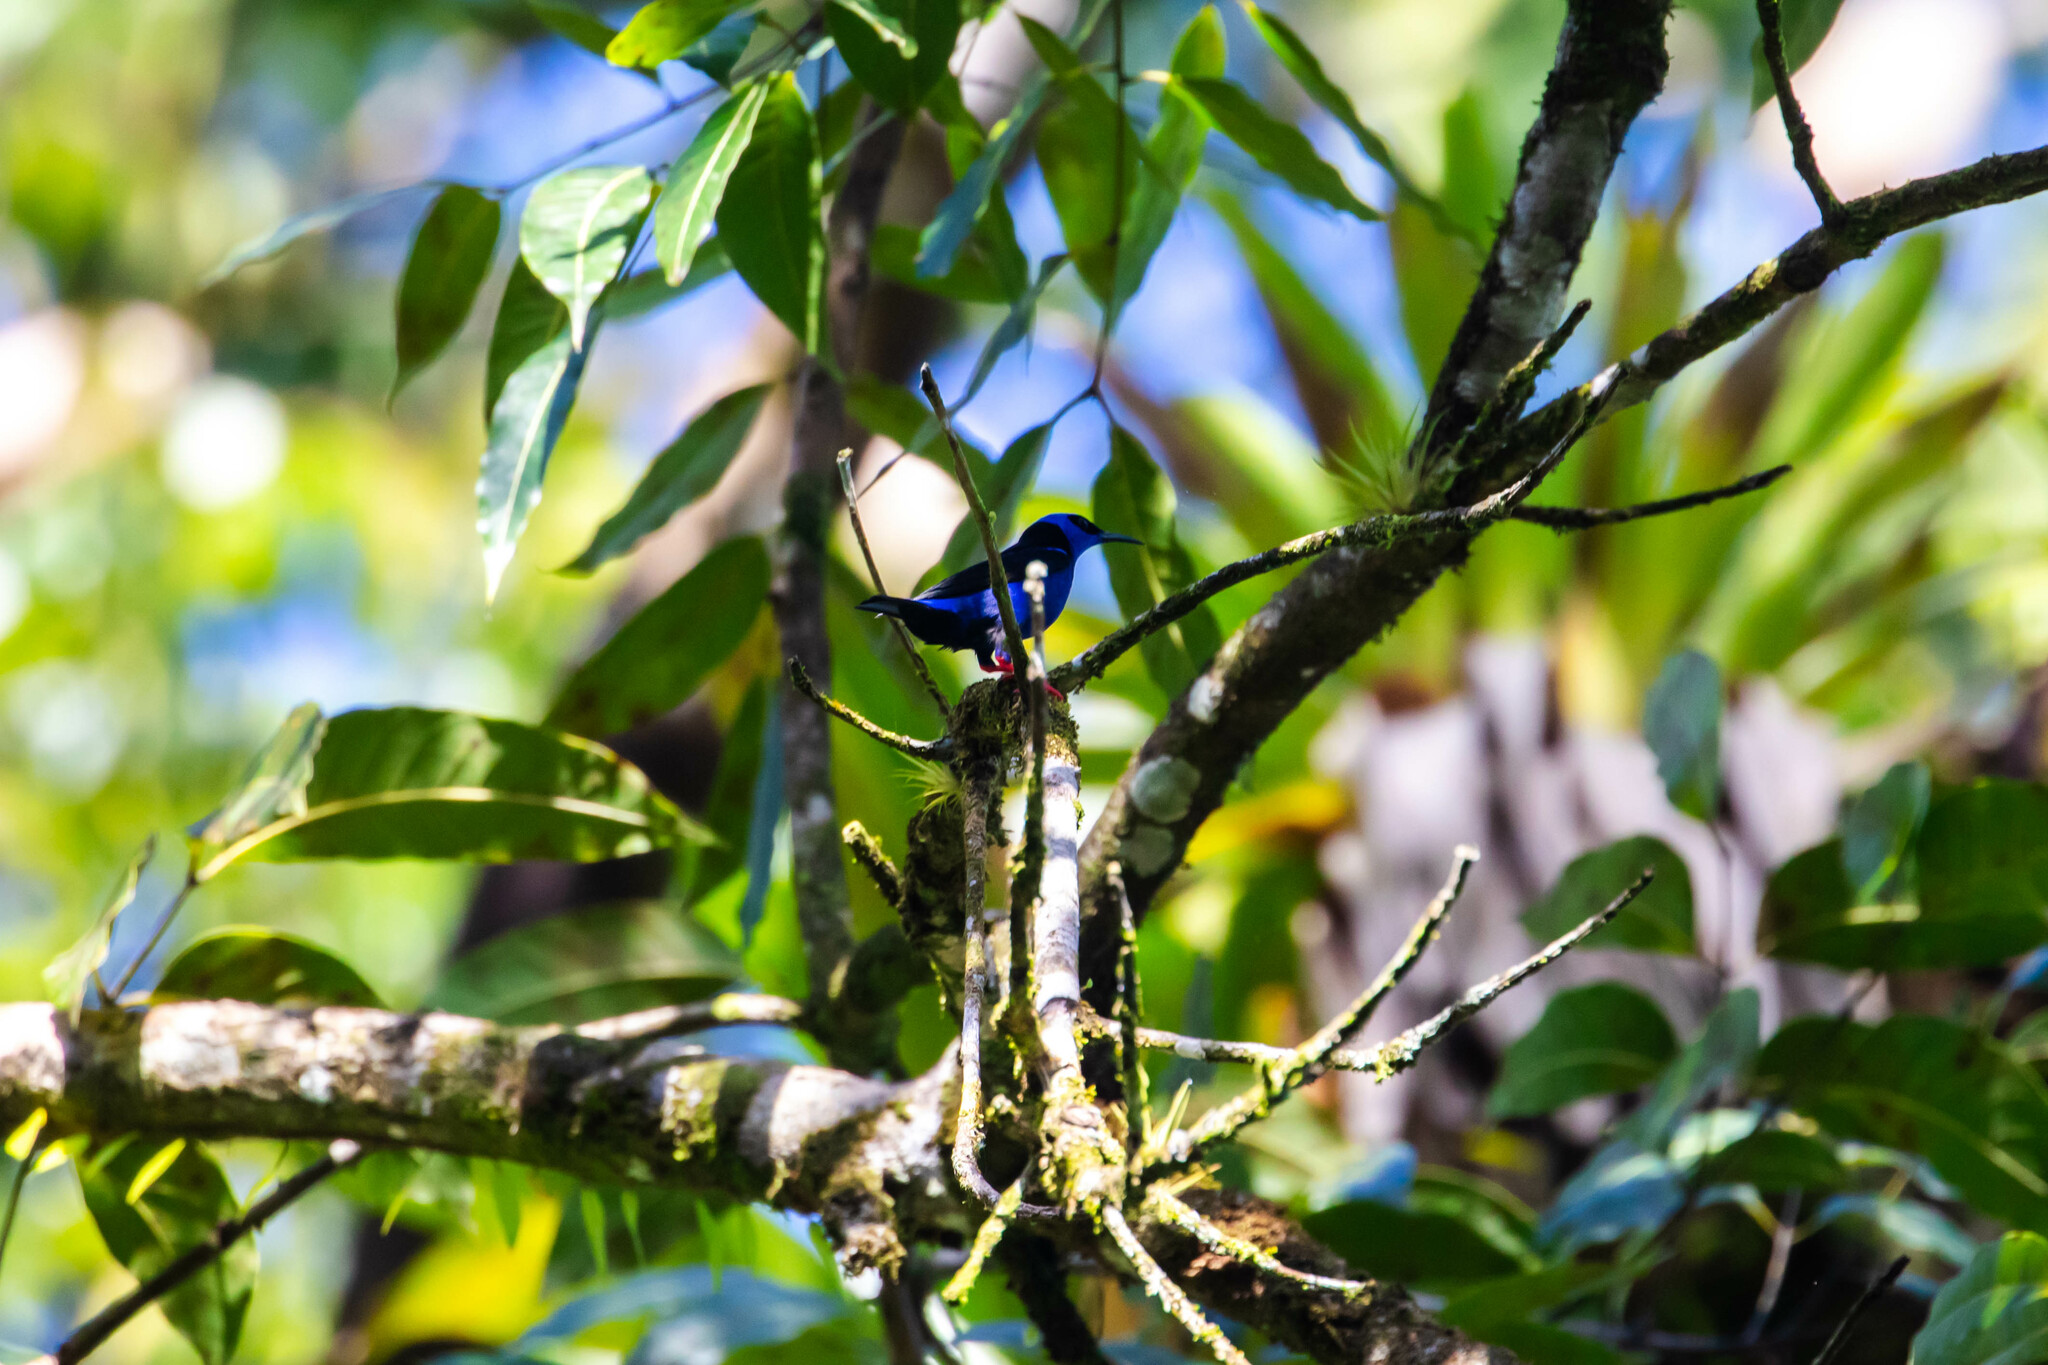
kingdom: Animalia
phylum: Chordata
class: Aves
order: Passeriformes
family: Thraupidae
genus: Cyanerpes
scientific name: Cyanerpes cyaneus
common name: Red-legged honeycreeper
